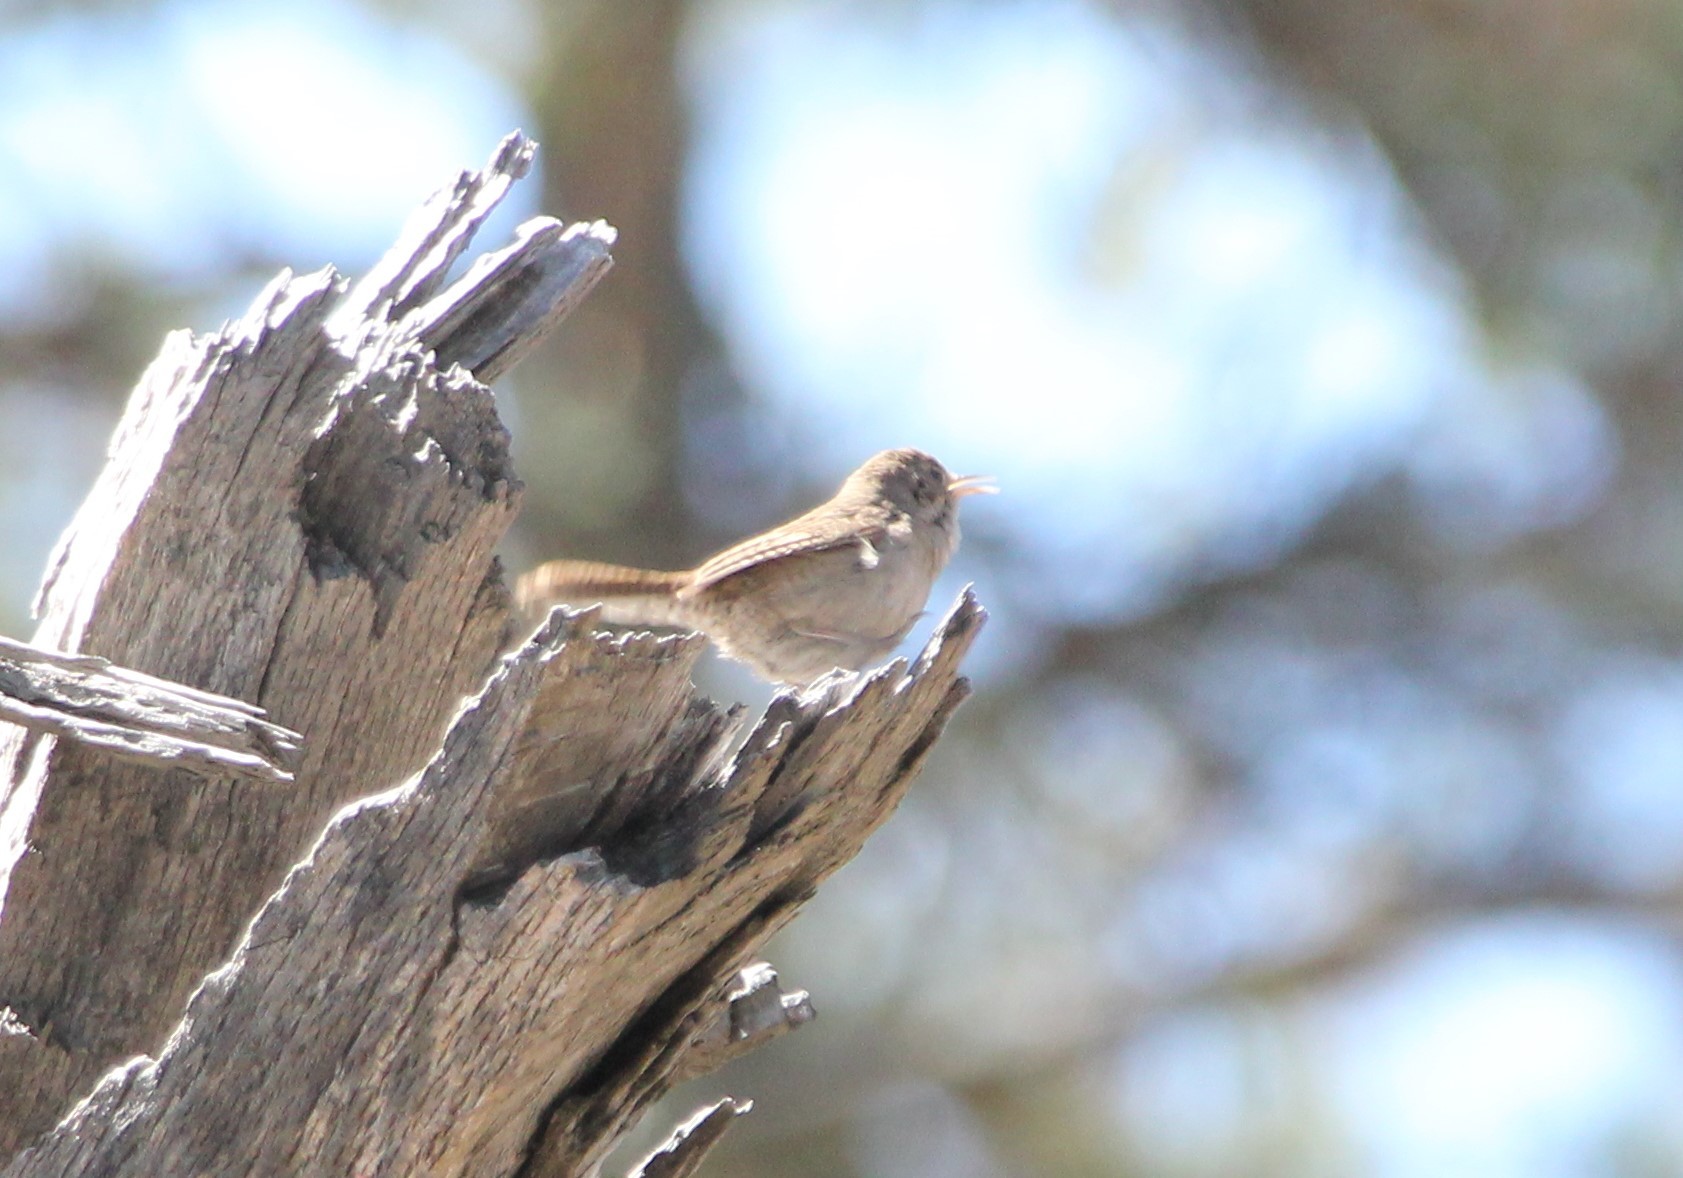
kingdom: Animalia
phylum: Chordata
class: Aves
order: Passeriformes
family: Troglodytidae
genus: Troglodytes
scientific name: Troglodytes aedon
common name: House wren
